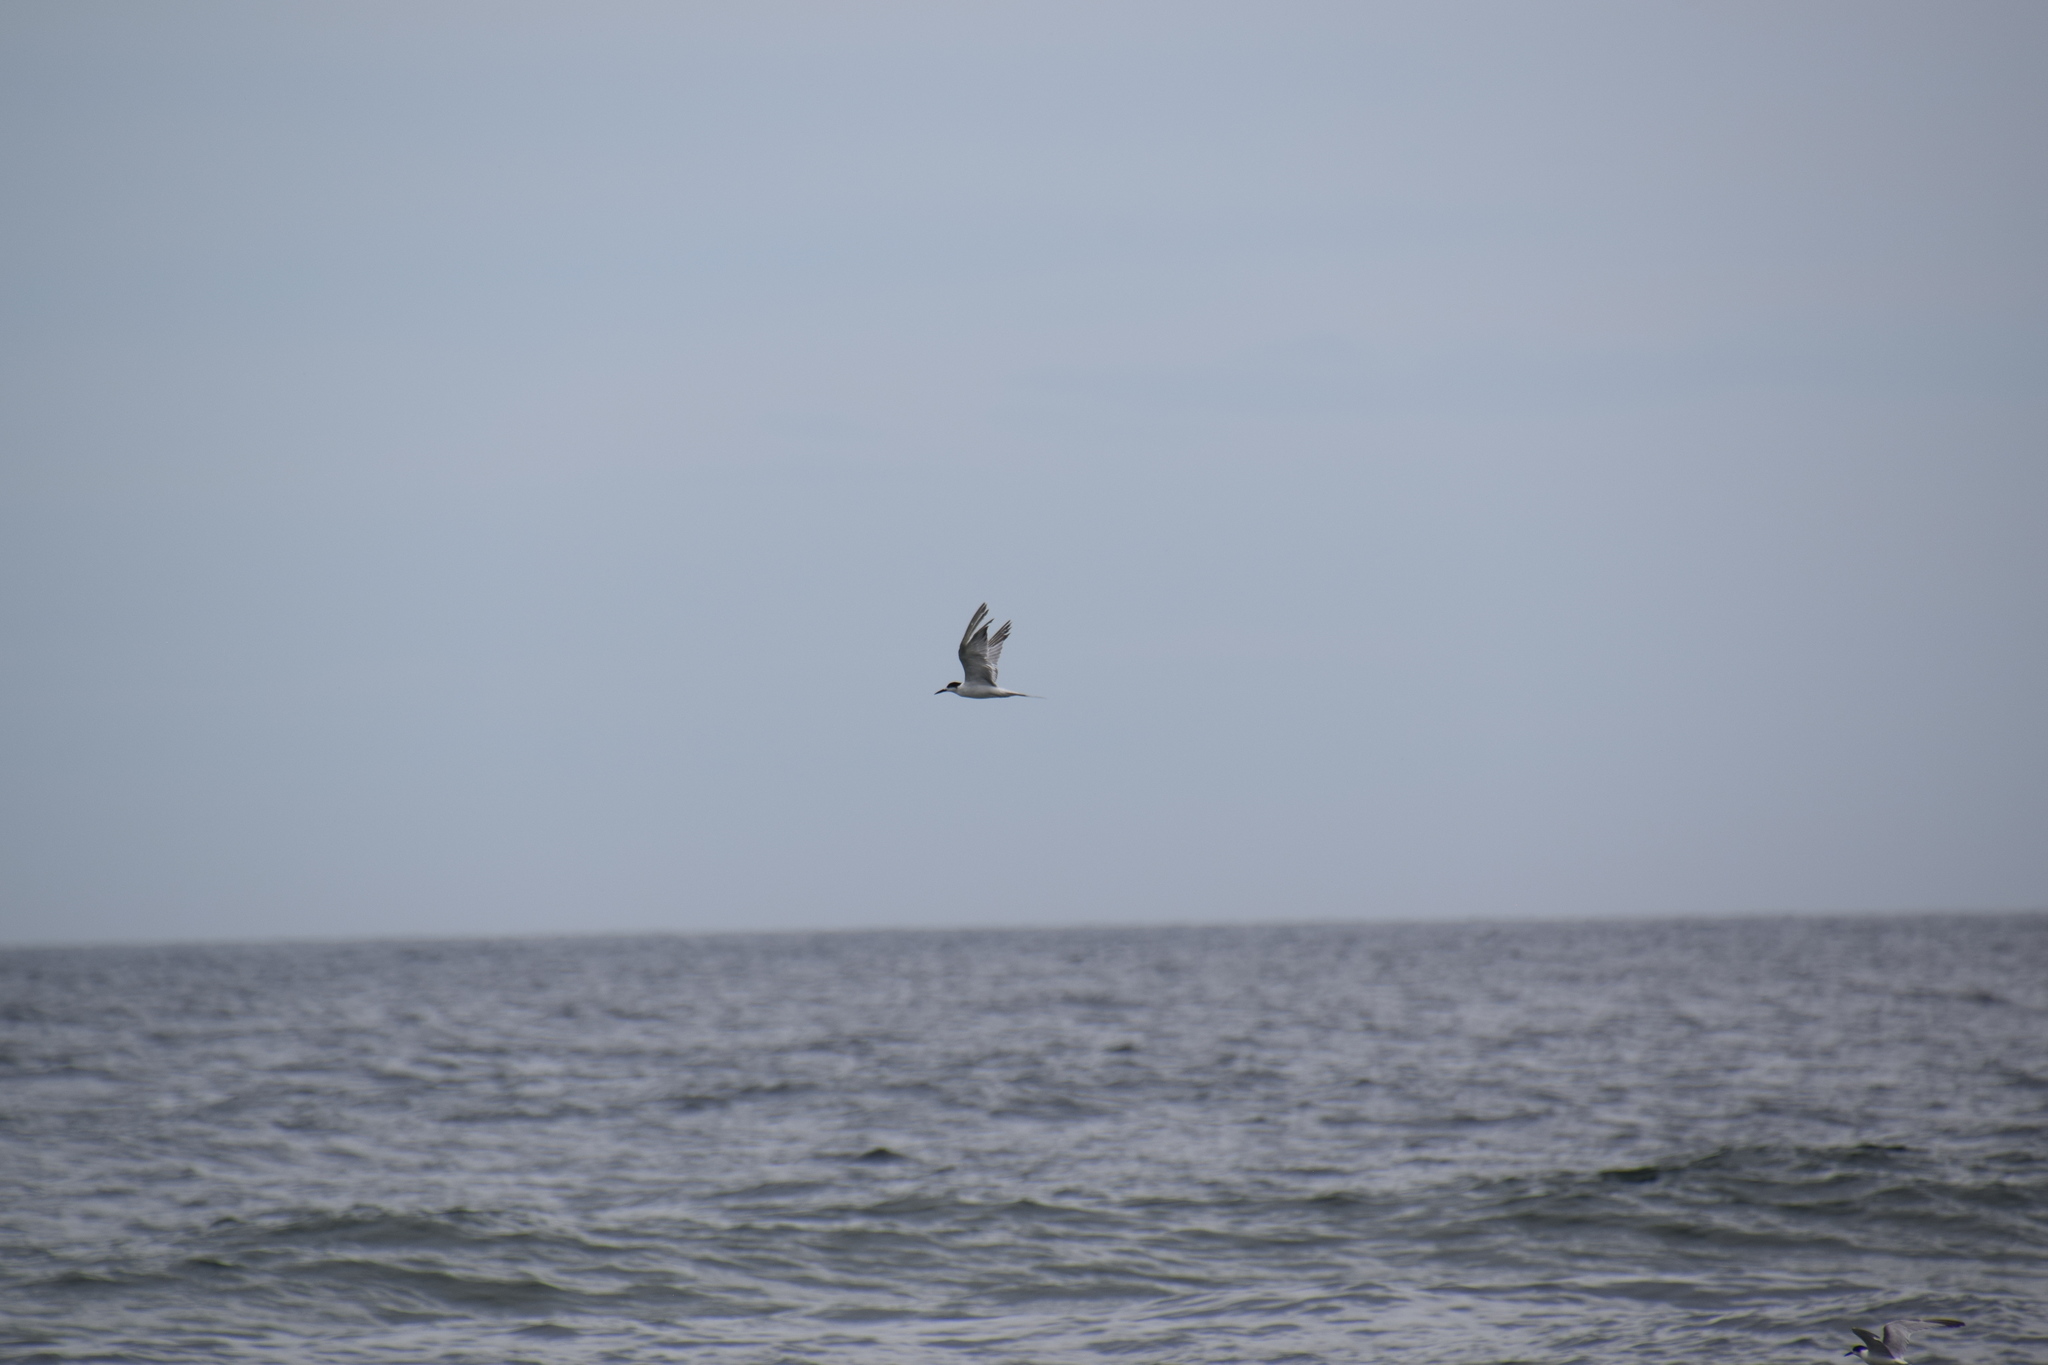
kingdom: Animalia
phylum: Chordata
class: Aves
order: Charadriiformes
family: Laridae
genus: Sterna
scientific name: Sterna hirundo
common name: Common tern
